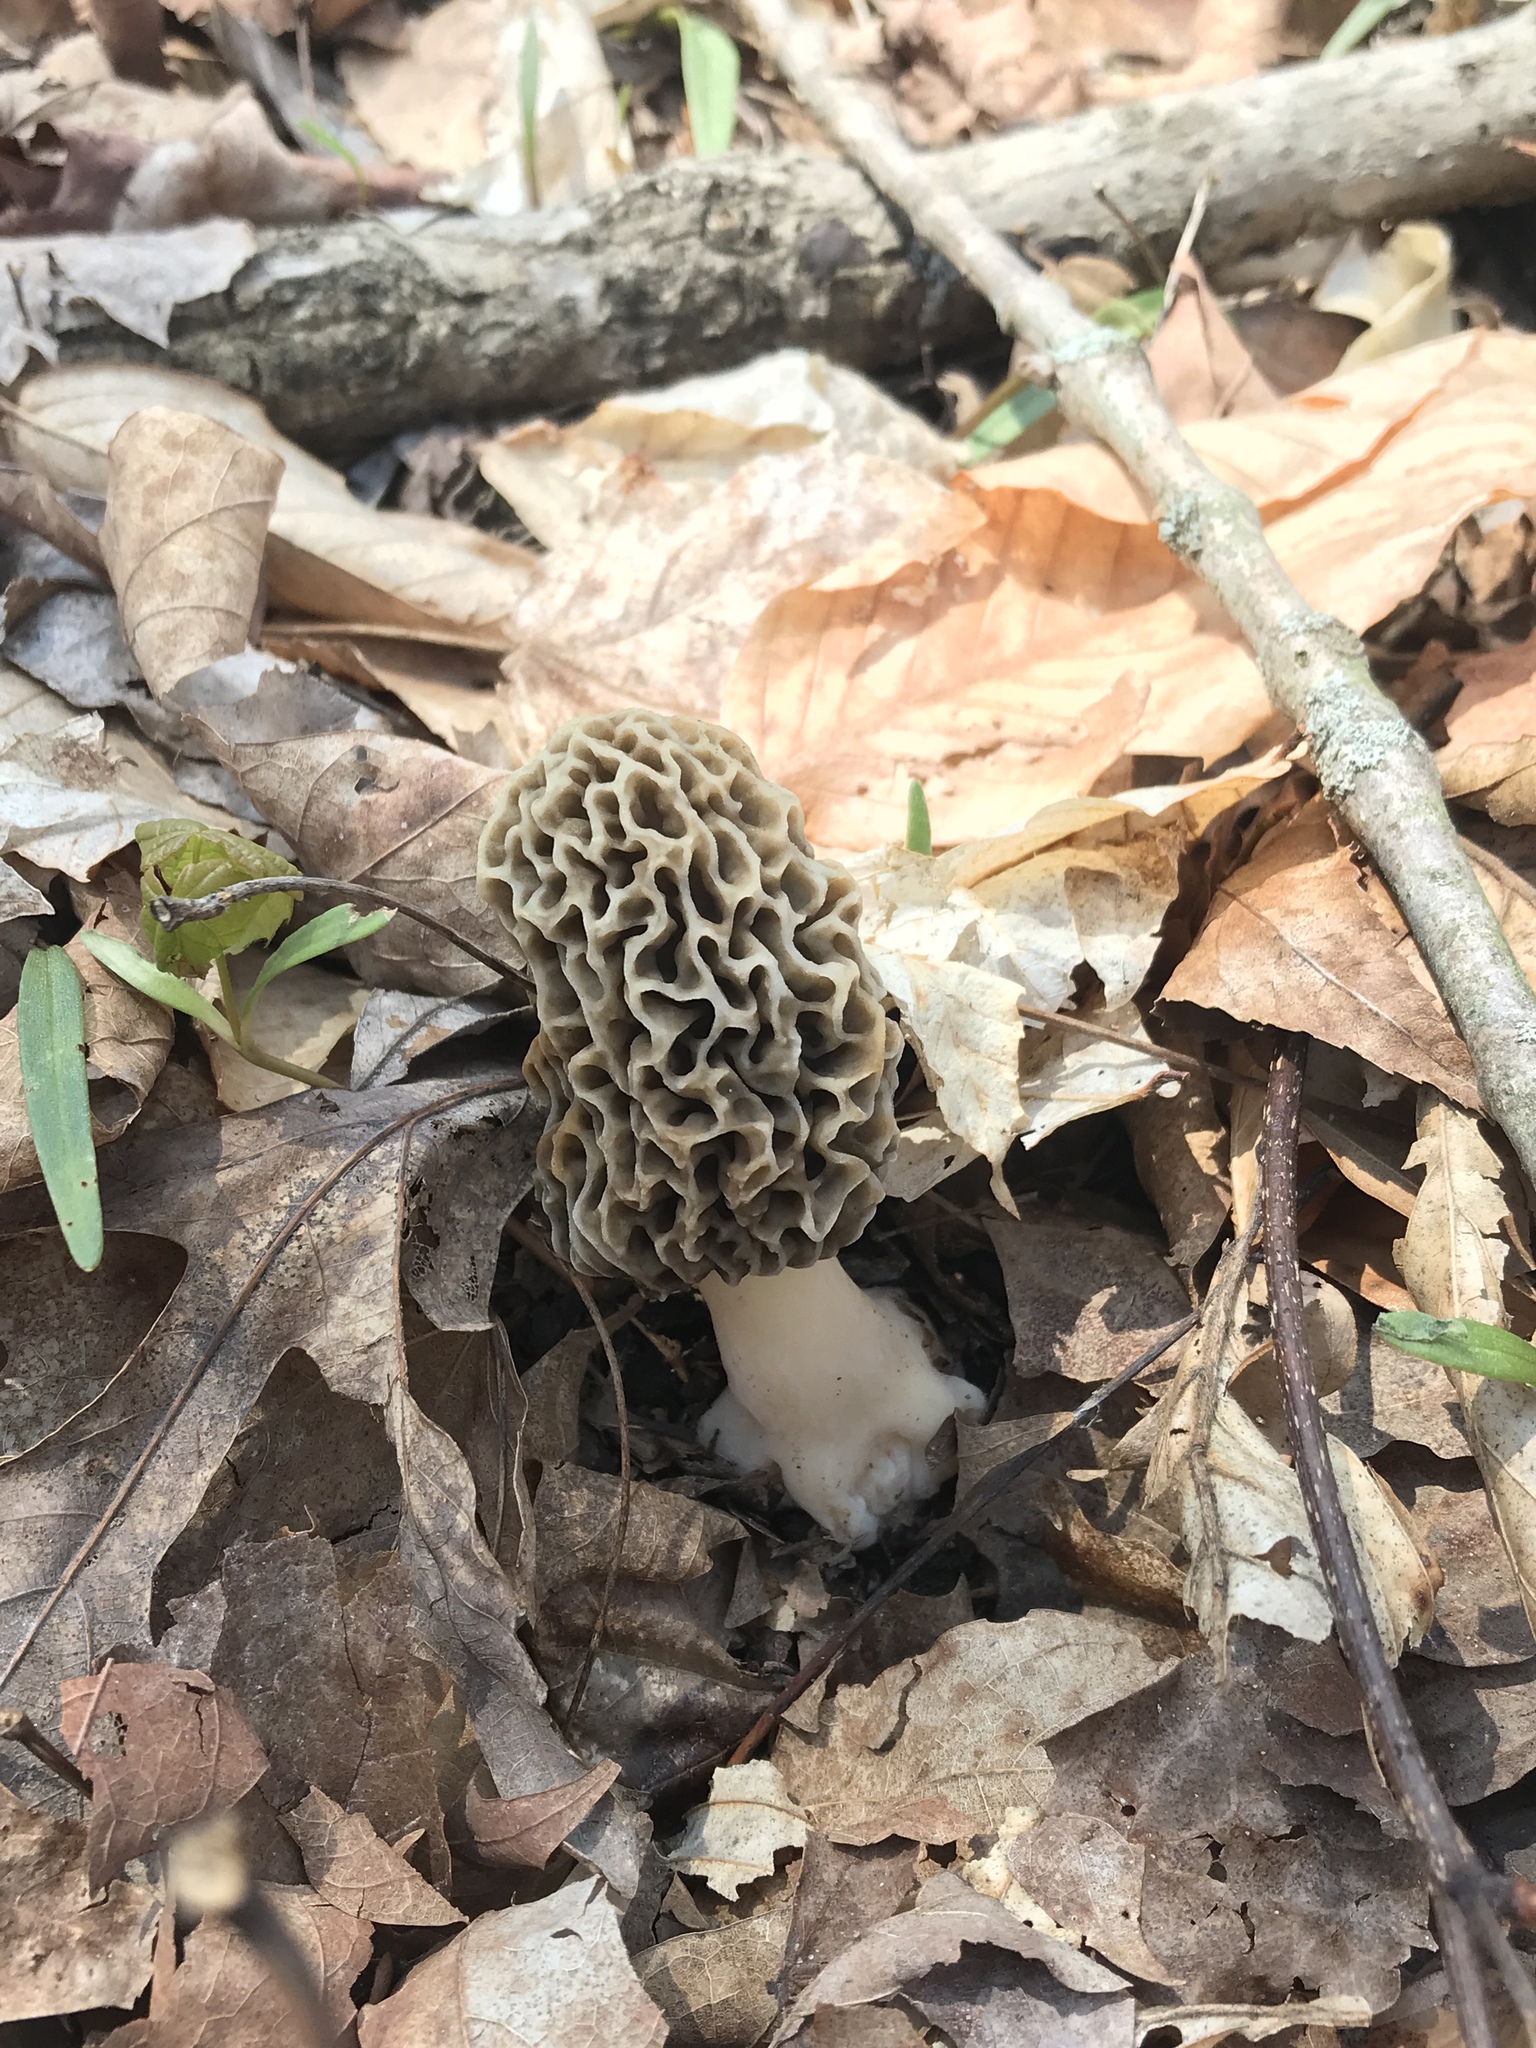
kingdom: Fungi
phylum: Ascomycota
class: Pezizomycetes
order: Pezizales
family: Morchellaceae
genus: Morchella
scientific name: Morchella americana
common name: White morel
